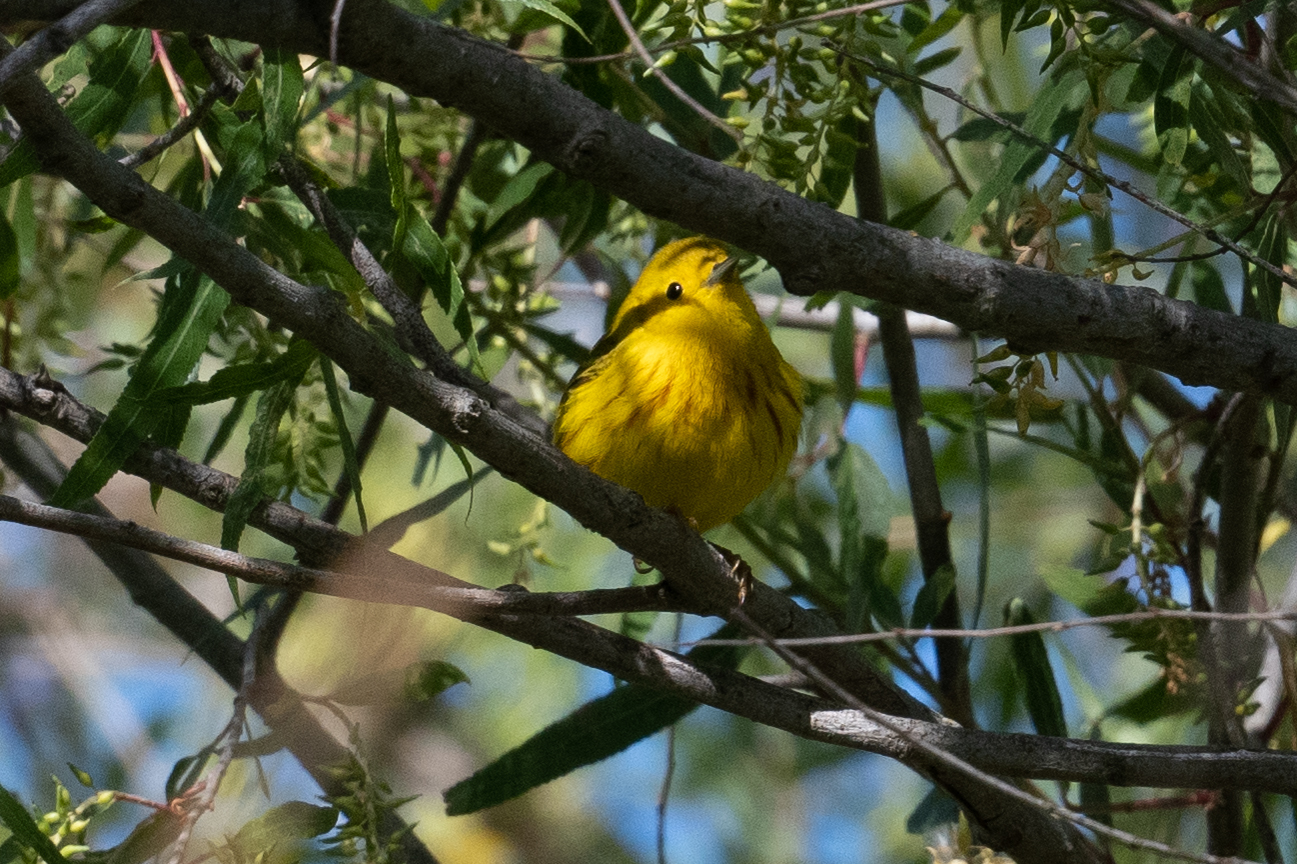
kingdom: Animalia
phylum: Chordata
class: Aves
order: Passeriformes
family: Parulidae
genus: Setophaga
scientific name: Setophaga petechia
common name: Yellow warbler
